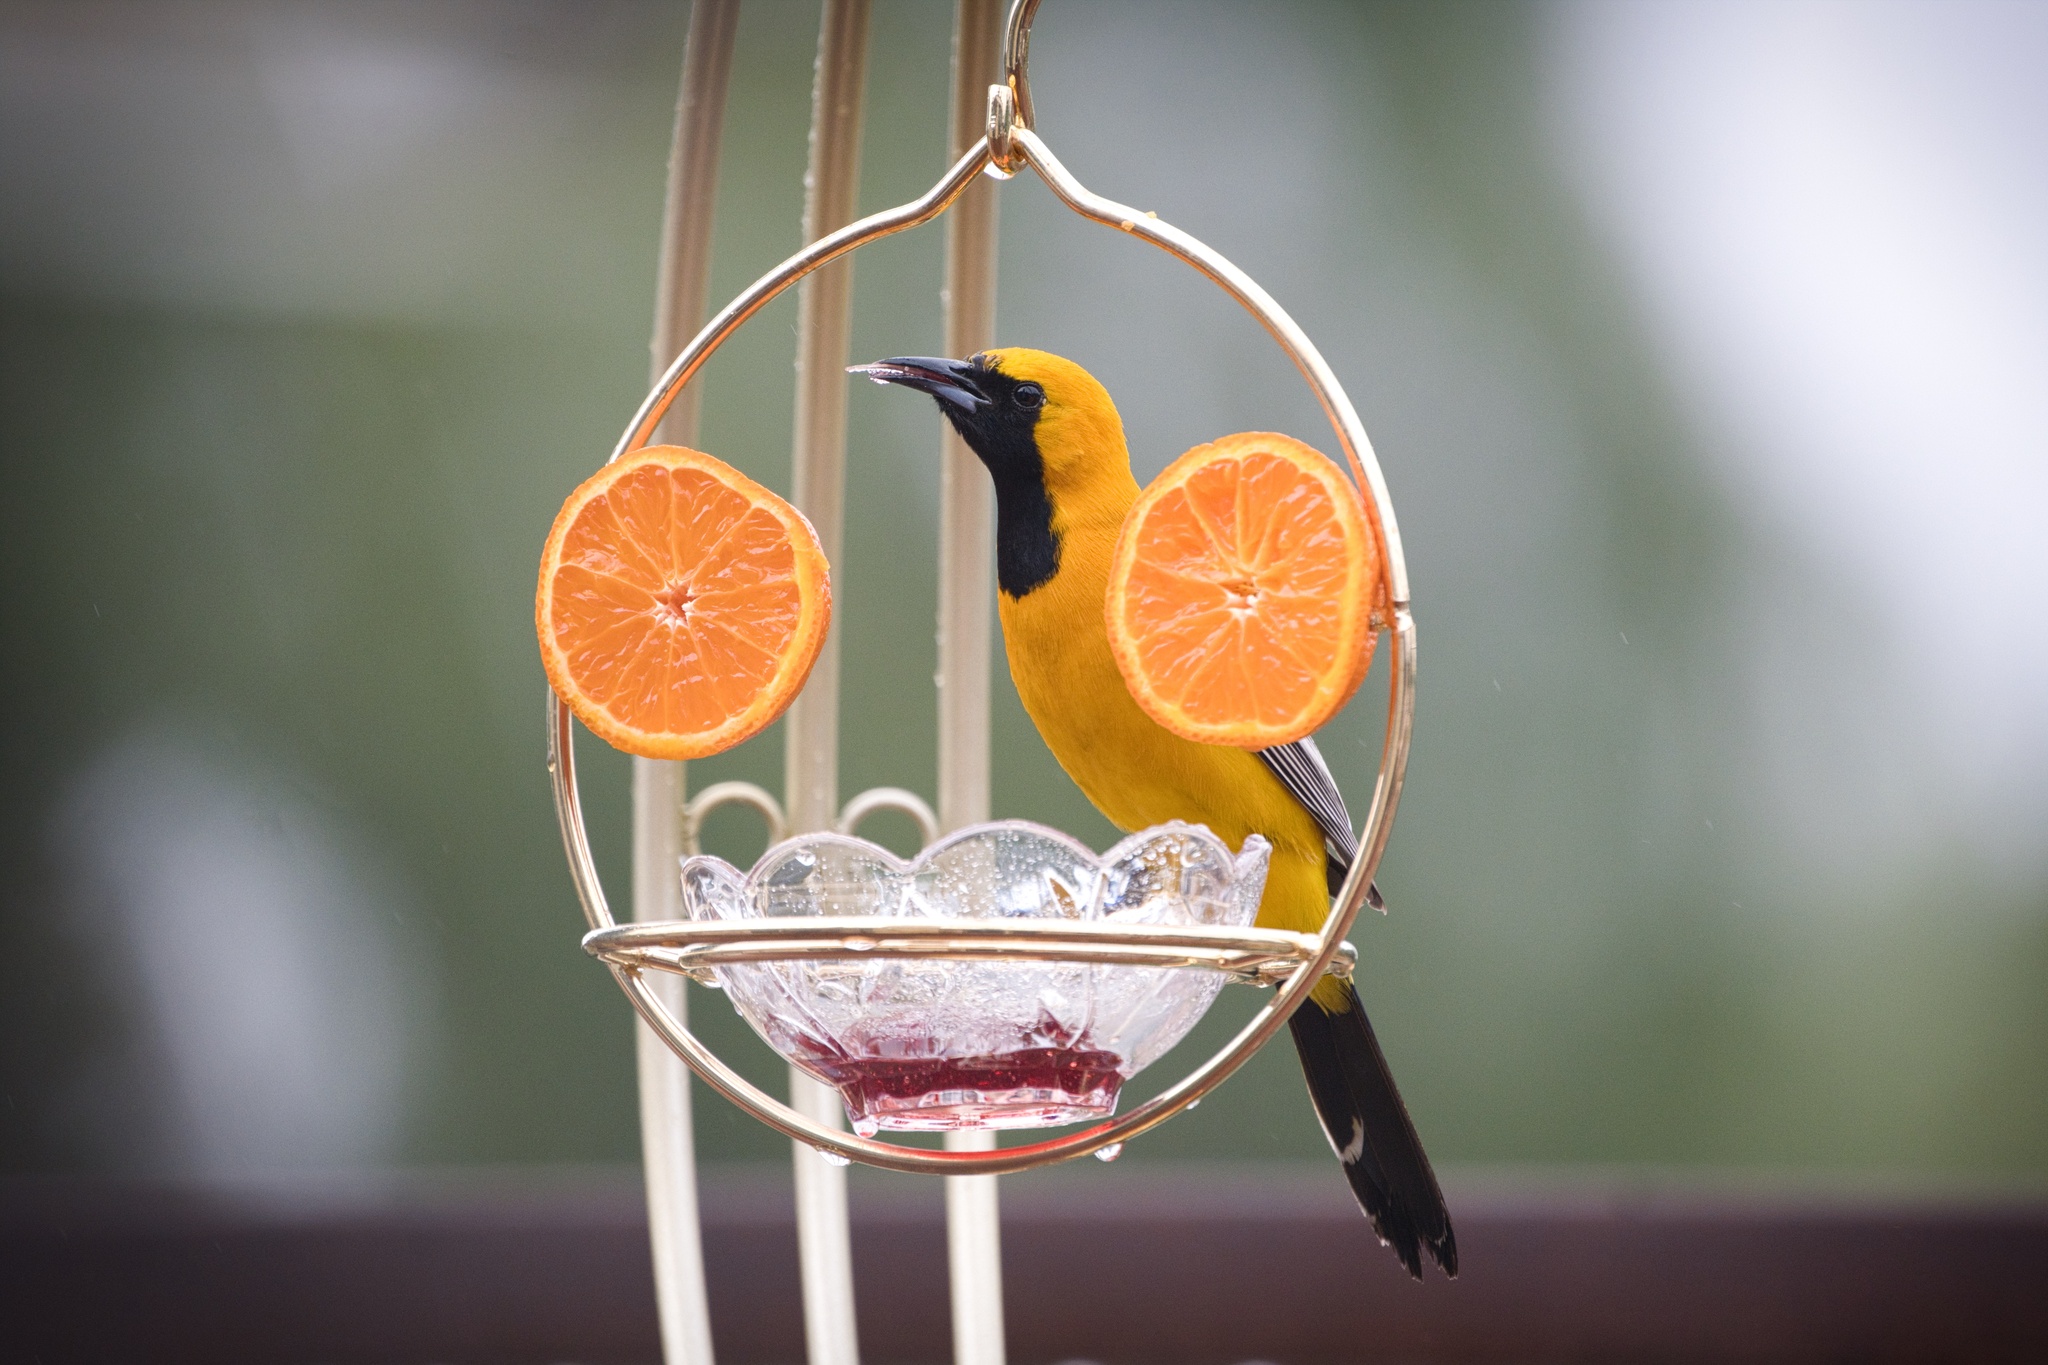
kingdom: Animalia
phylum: Chordata
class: Aves
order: Passeriformes
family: Icteridae
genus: Icterus
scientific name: Icterus cucullatus
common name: Hooded oriole
